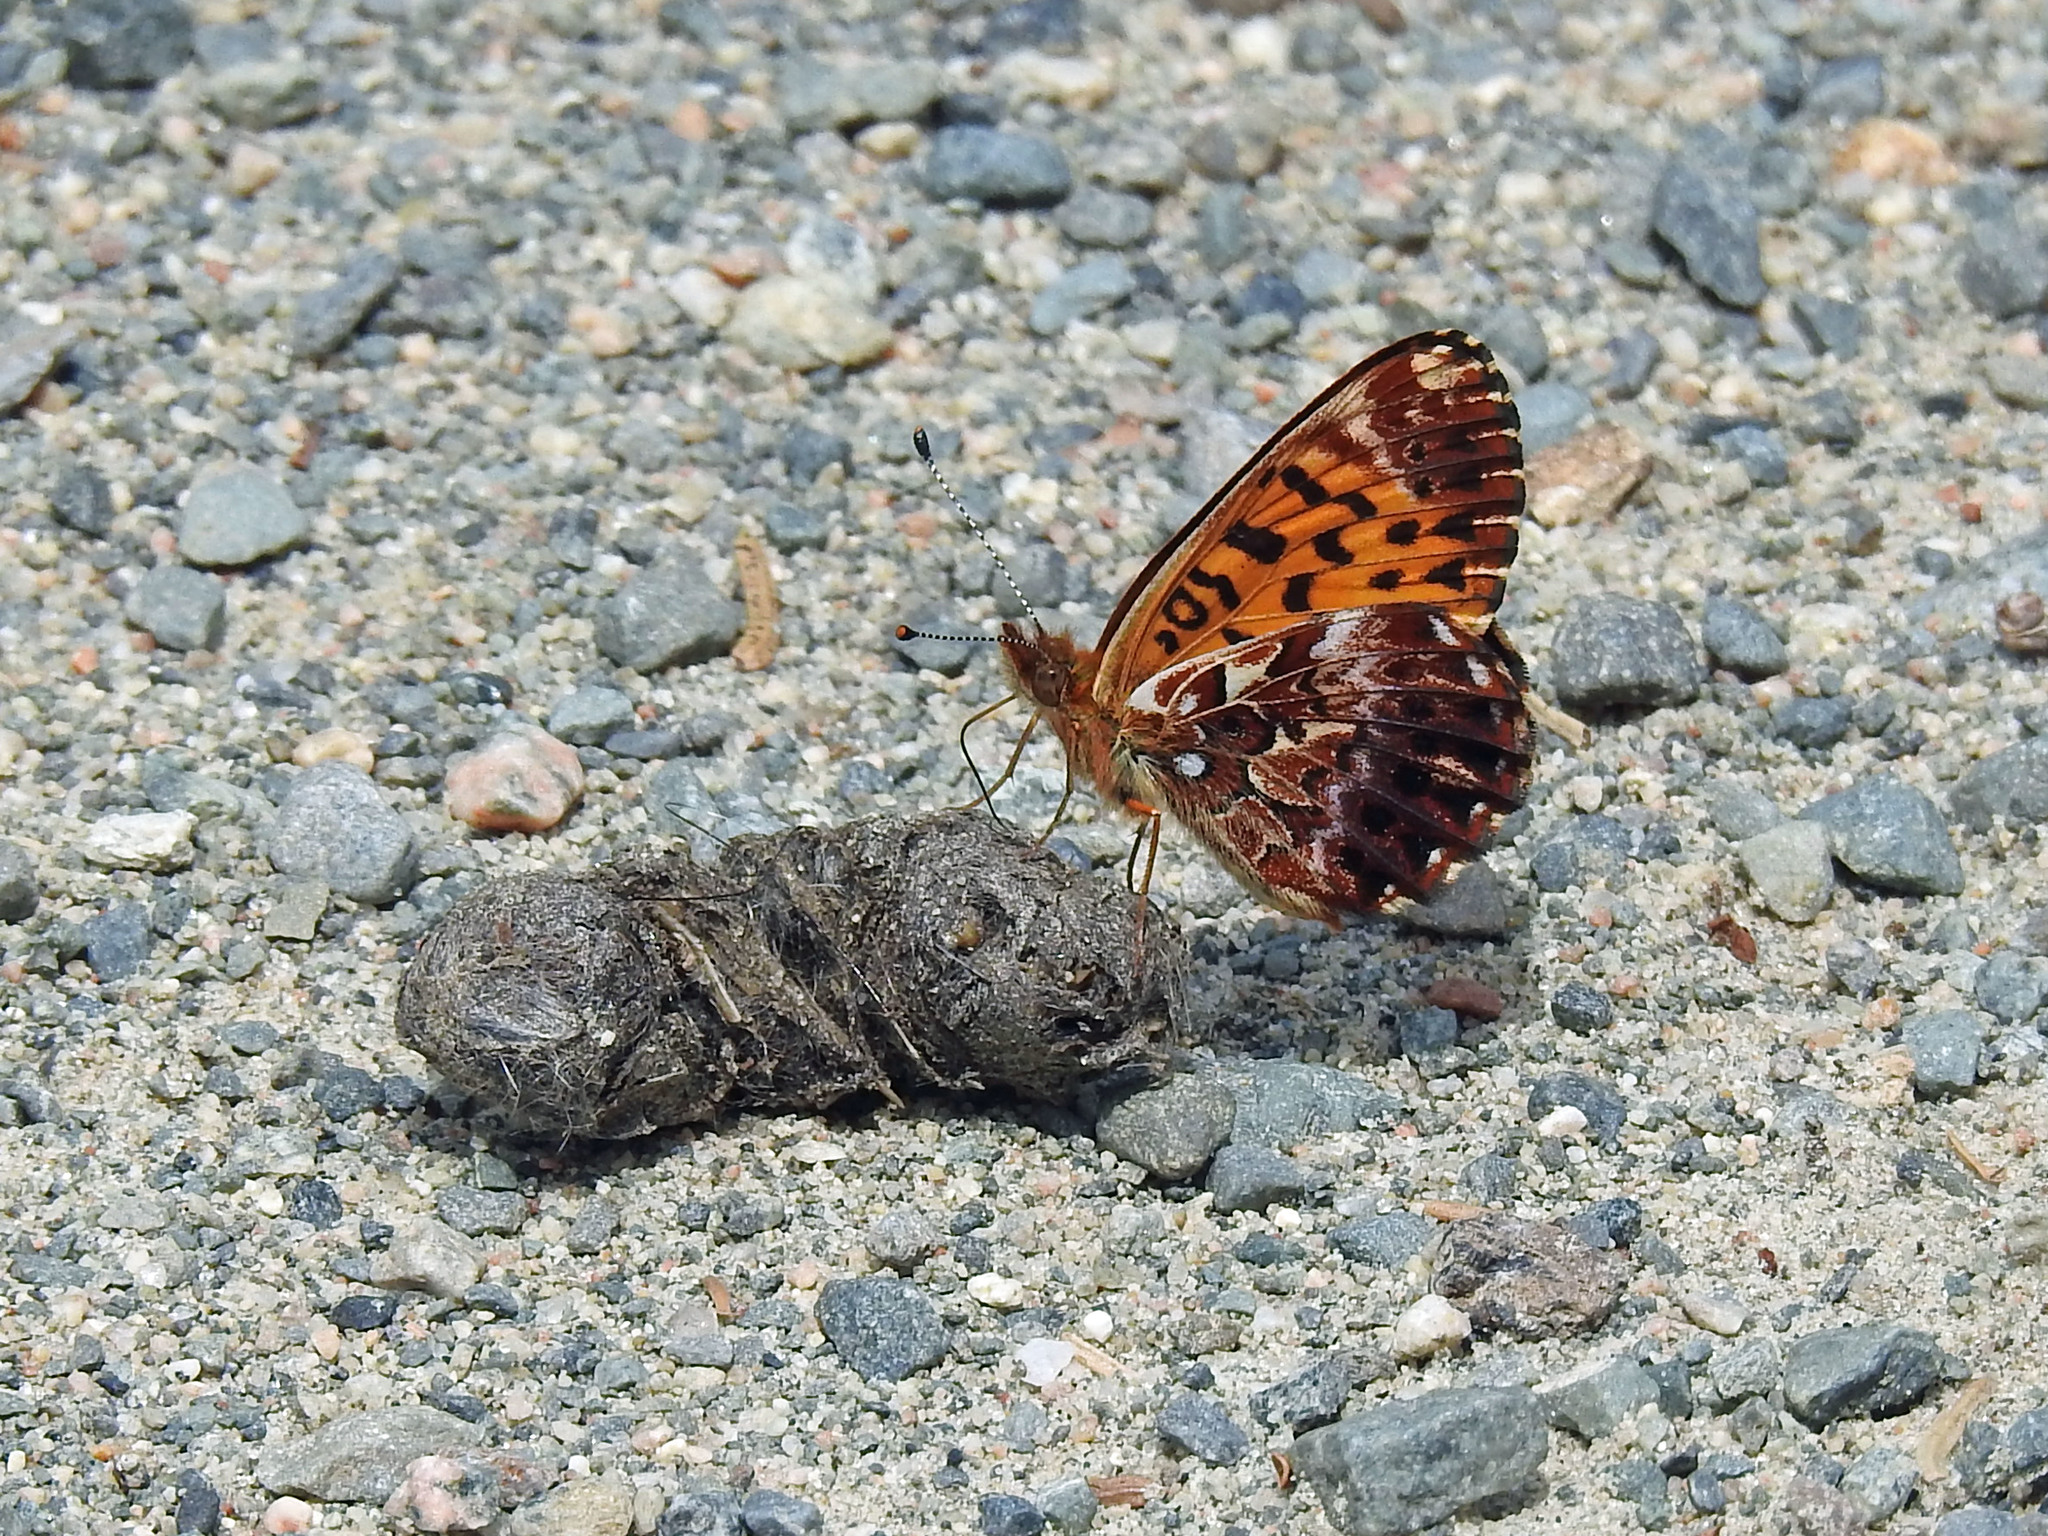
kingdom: Animalia
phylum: Arthropoda
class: Insecta
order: Lepidoptera
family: Nymphalidae
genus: Clossiana
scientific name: Clossiana chariclea
